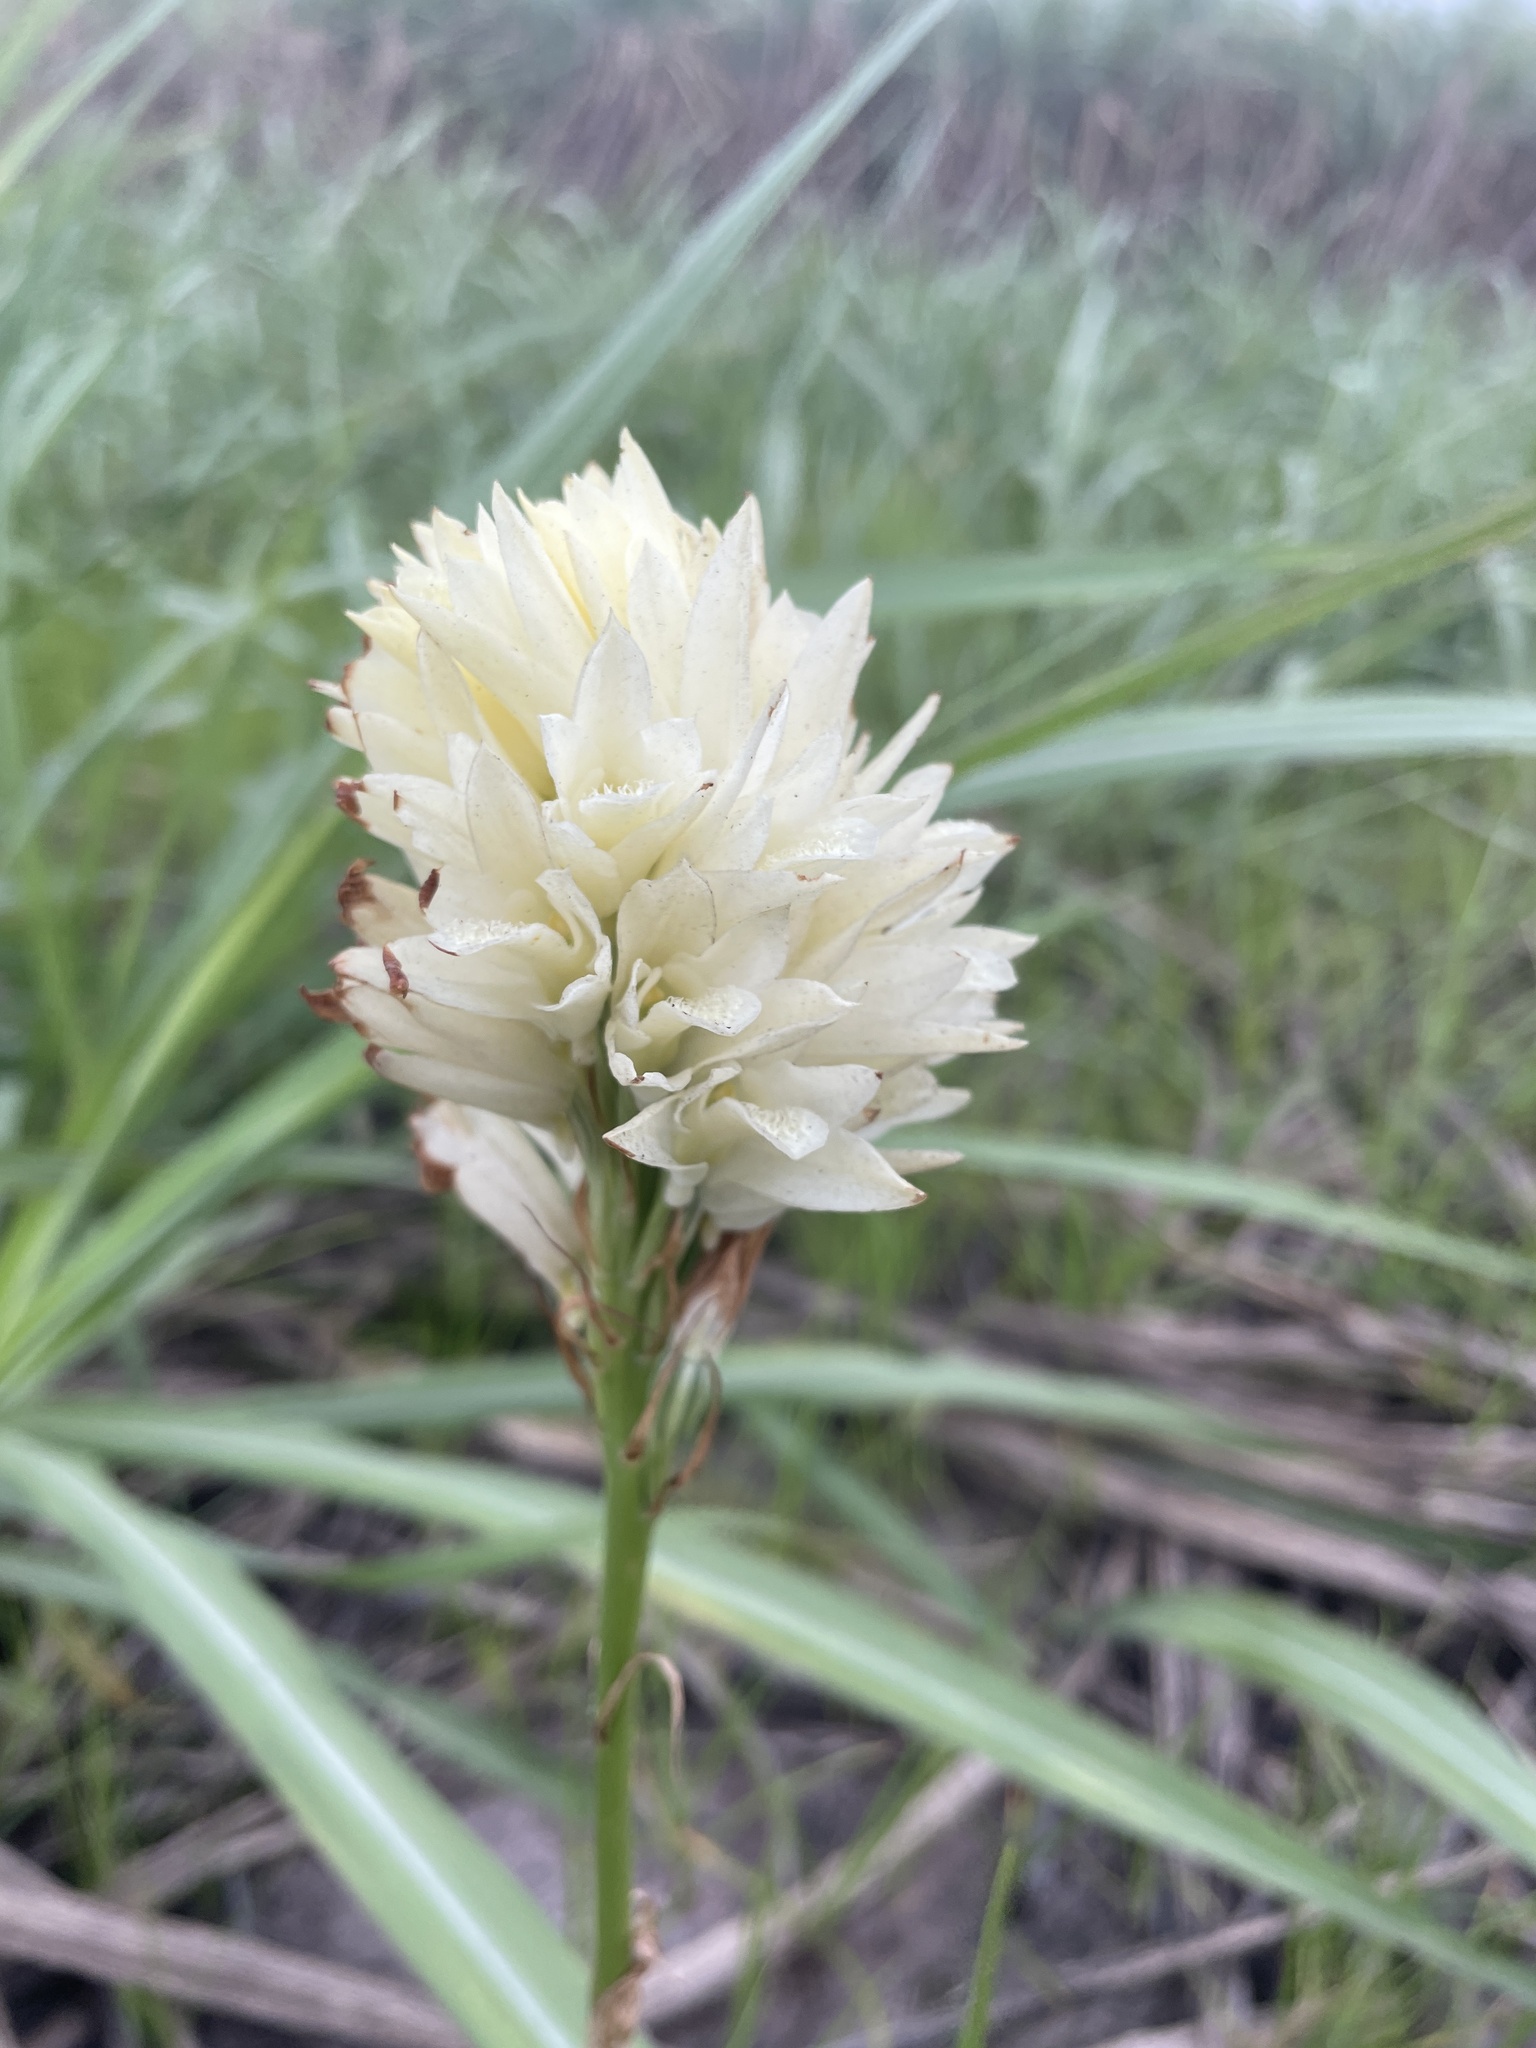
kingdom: Plantae
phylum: Tracheophyta
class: Liliopsida
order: Asparagales
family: Orchidaceae
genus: Eulophia
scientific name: Eulophia ensata
